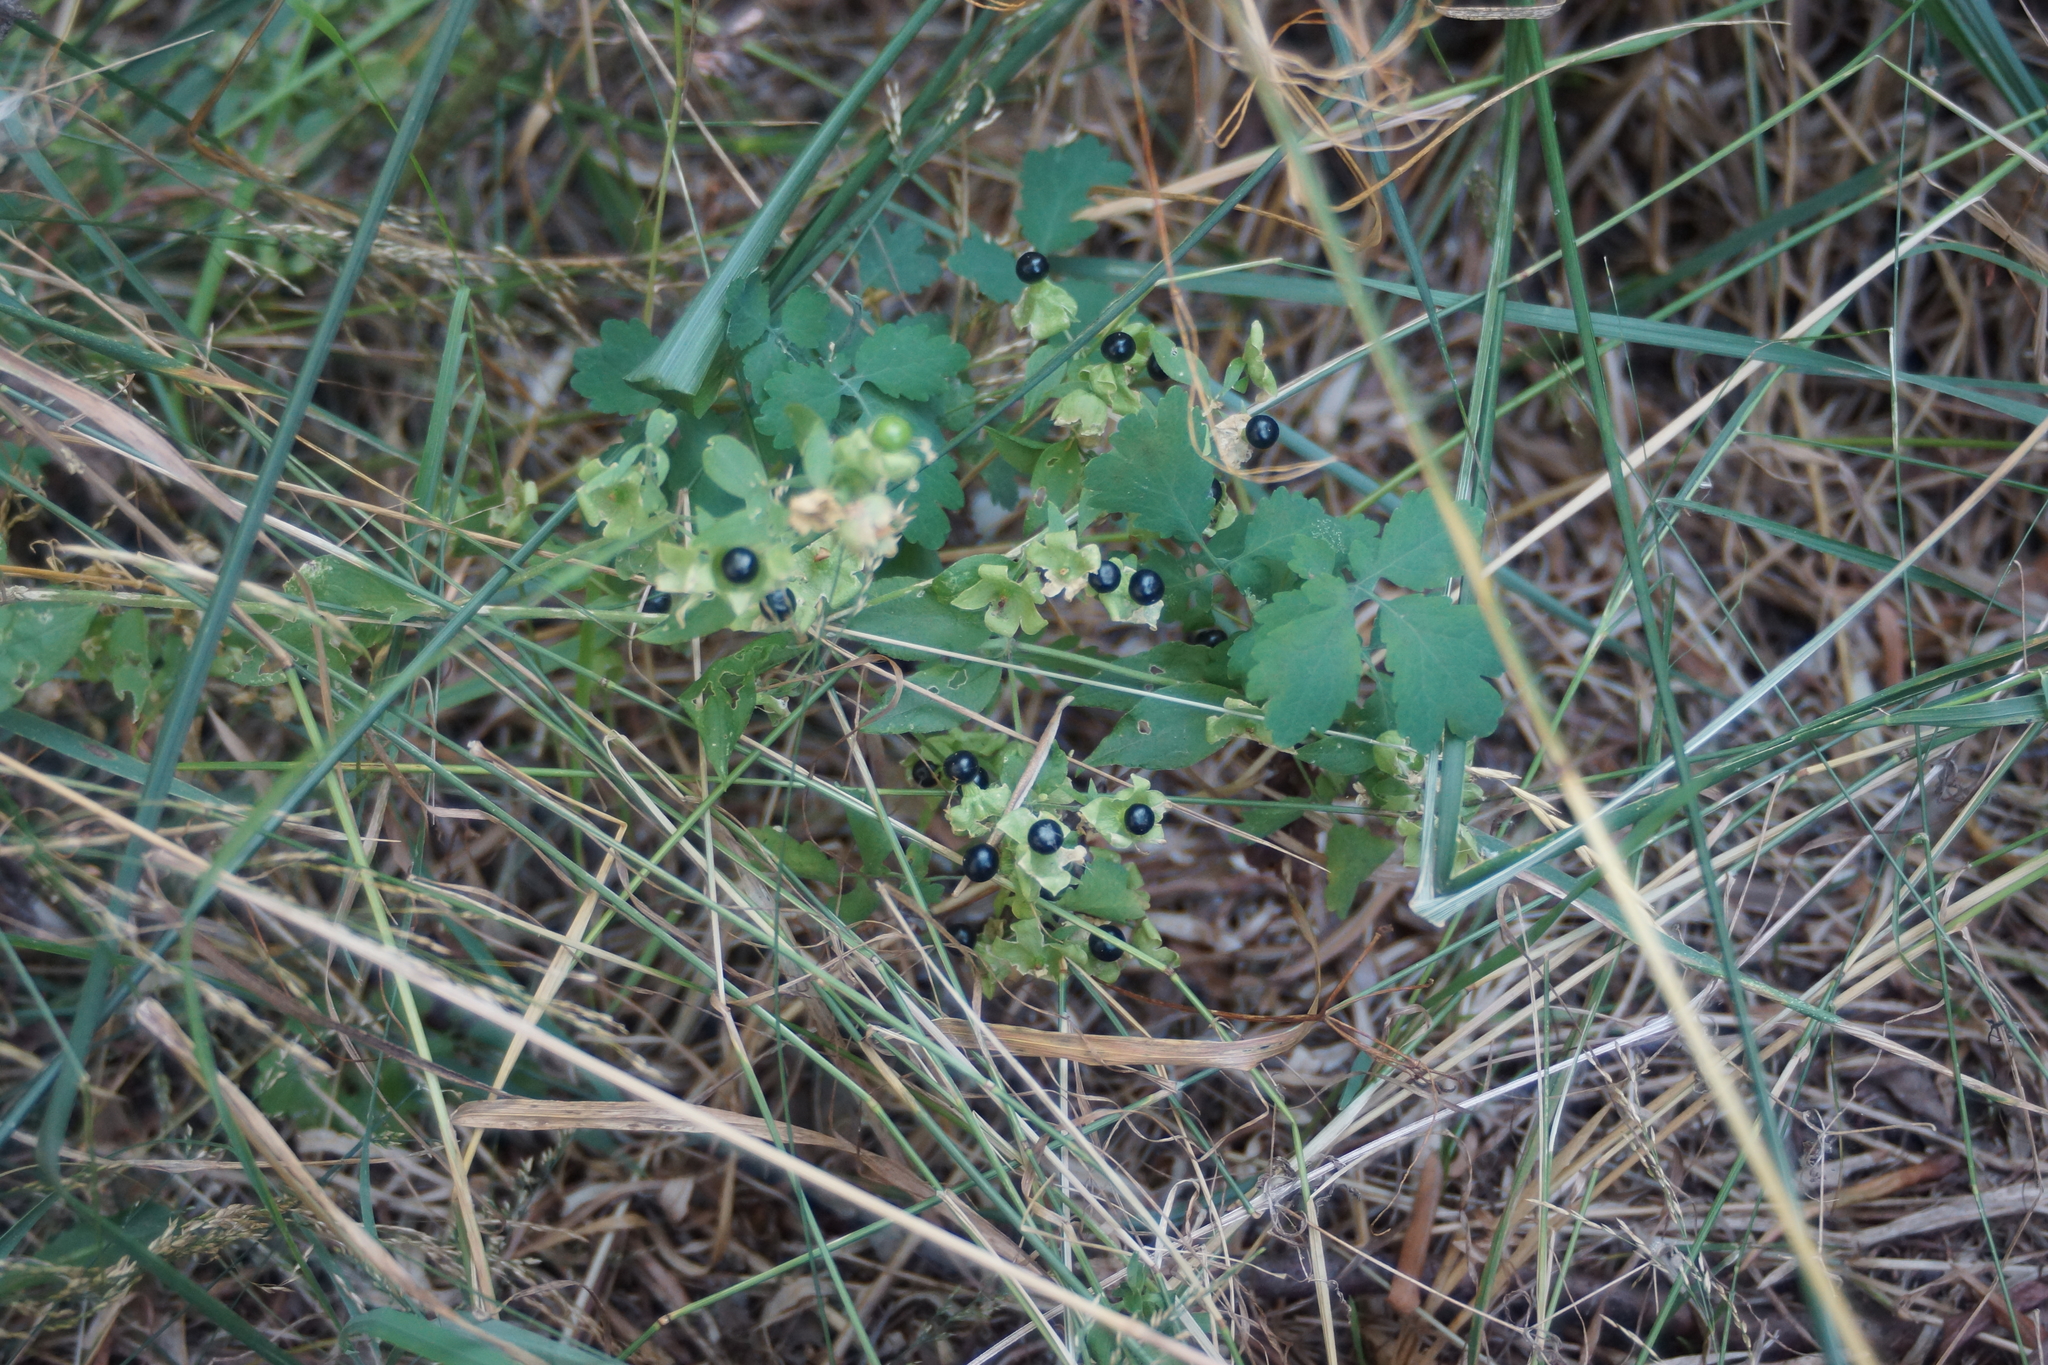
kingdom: Plantae
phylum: Tracheophyta
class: Magnoliopsida
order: Caryophyllales
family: Caryophyllaceae
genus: Silene
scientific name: Silene baccifera
